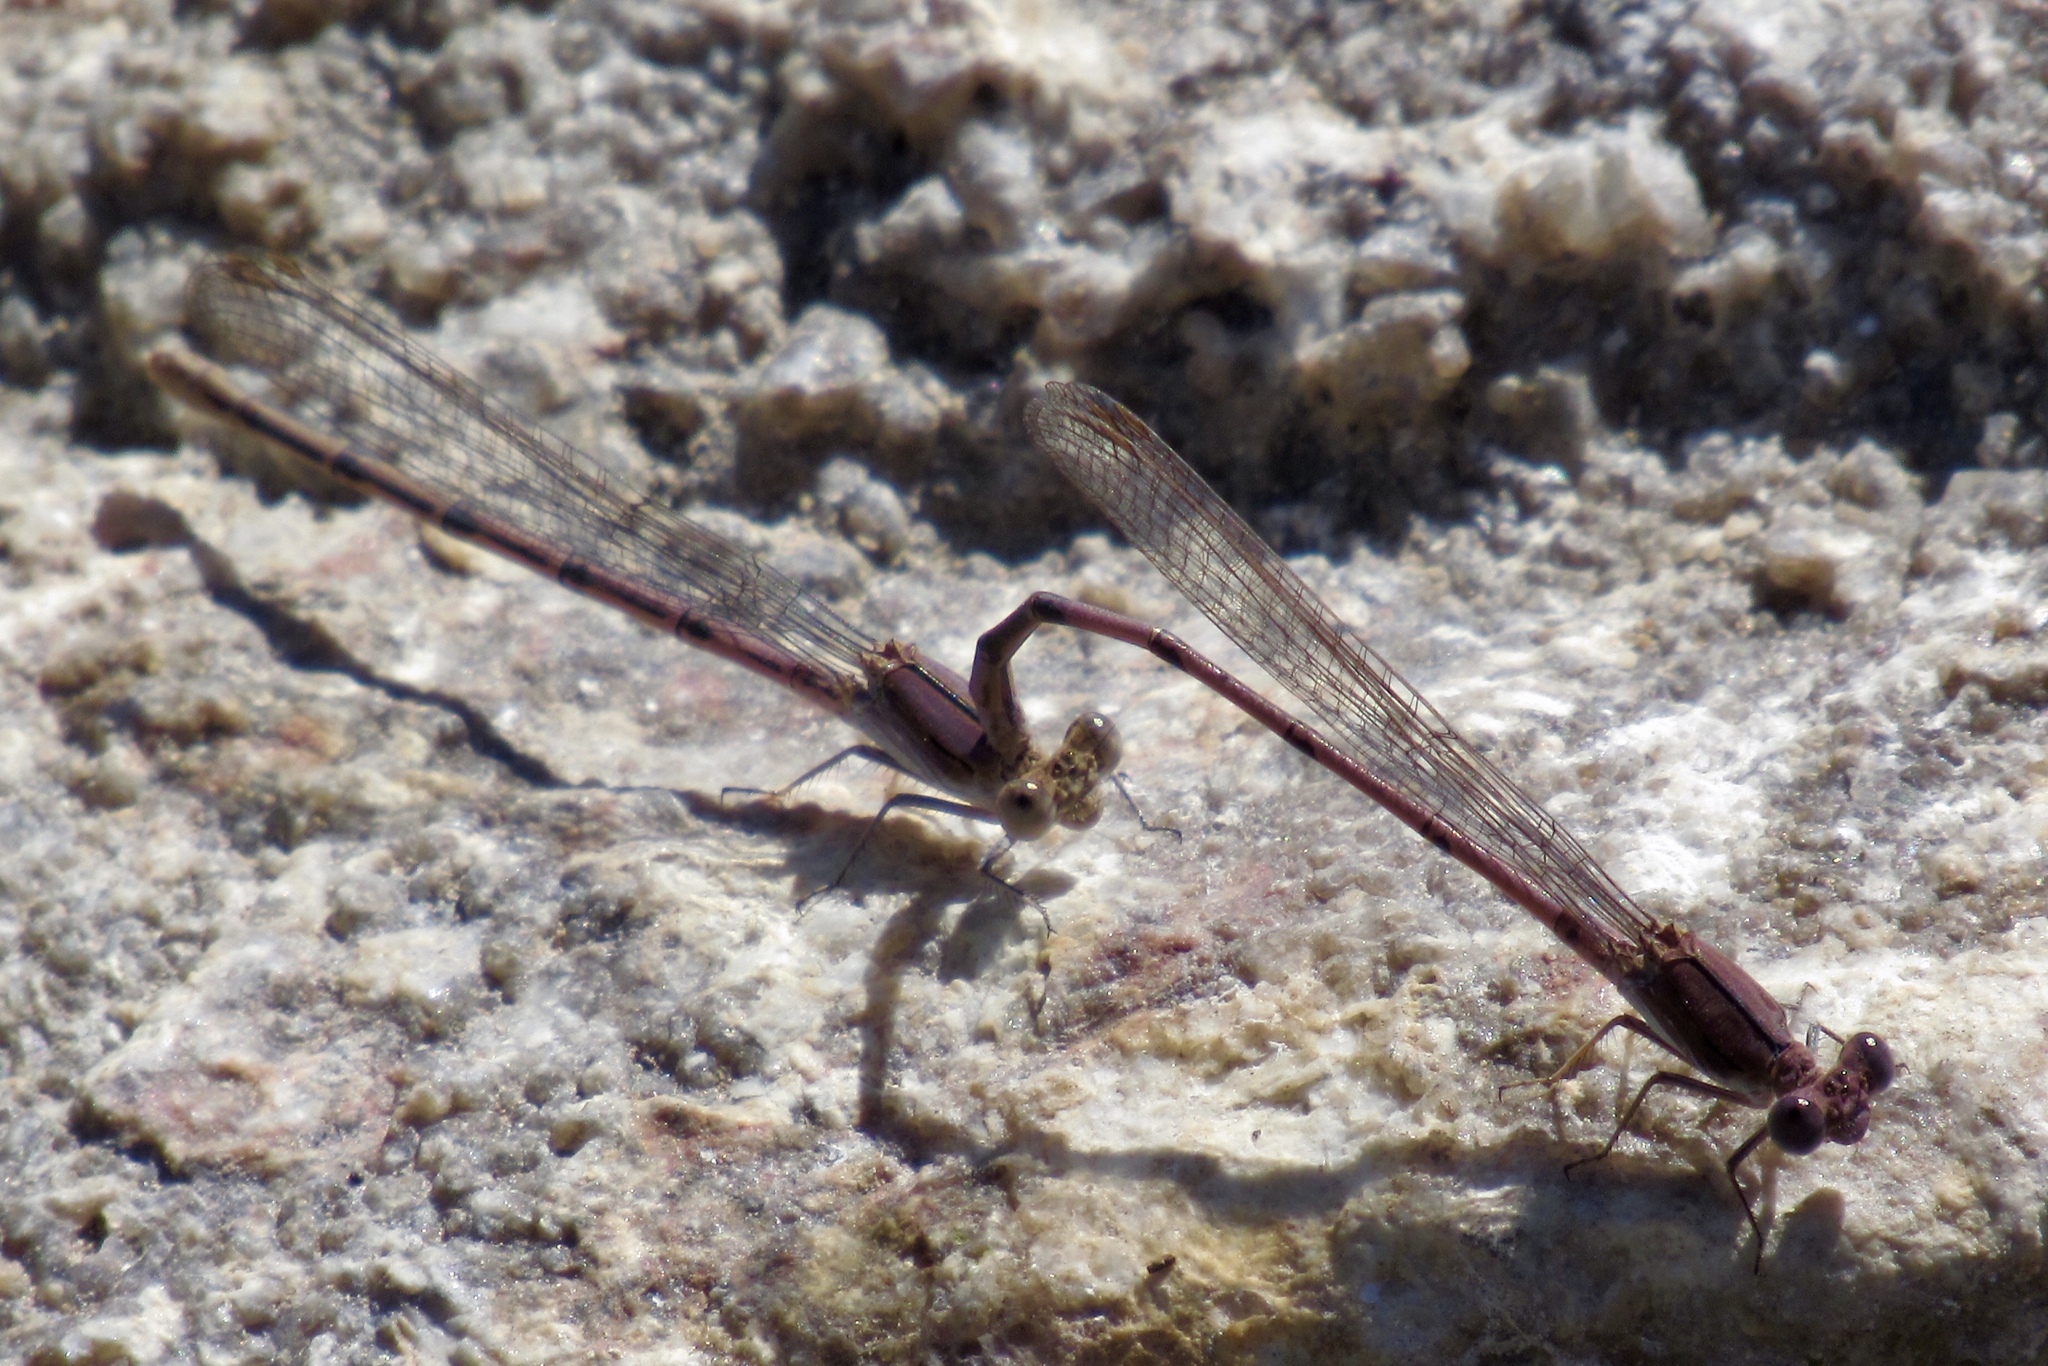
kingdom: Animalia
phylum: Arthropoda
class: Insecta
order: Odonata
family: Coenagrionidae
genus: Argia
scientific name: Argia pallens
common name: Amethyst dancer
